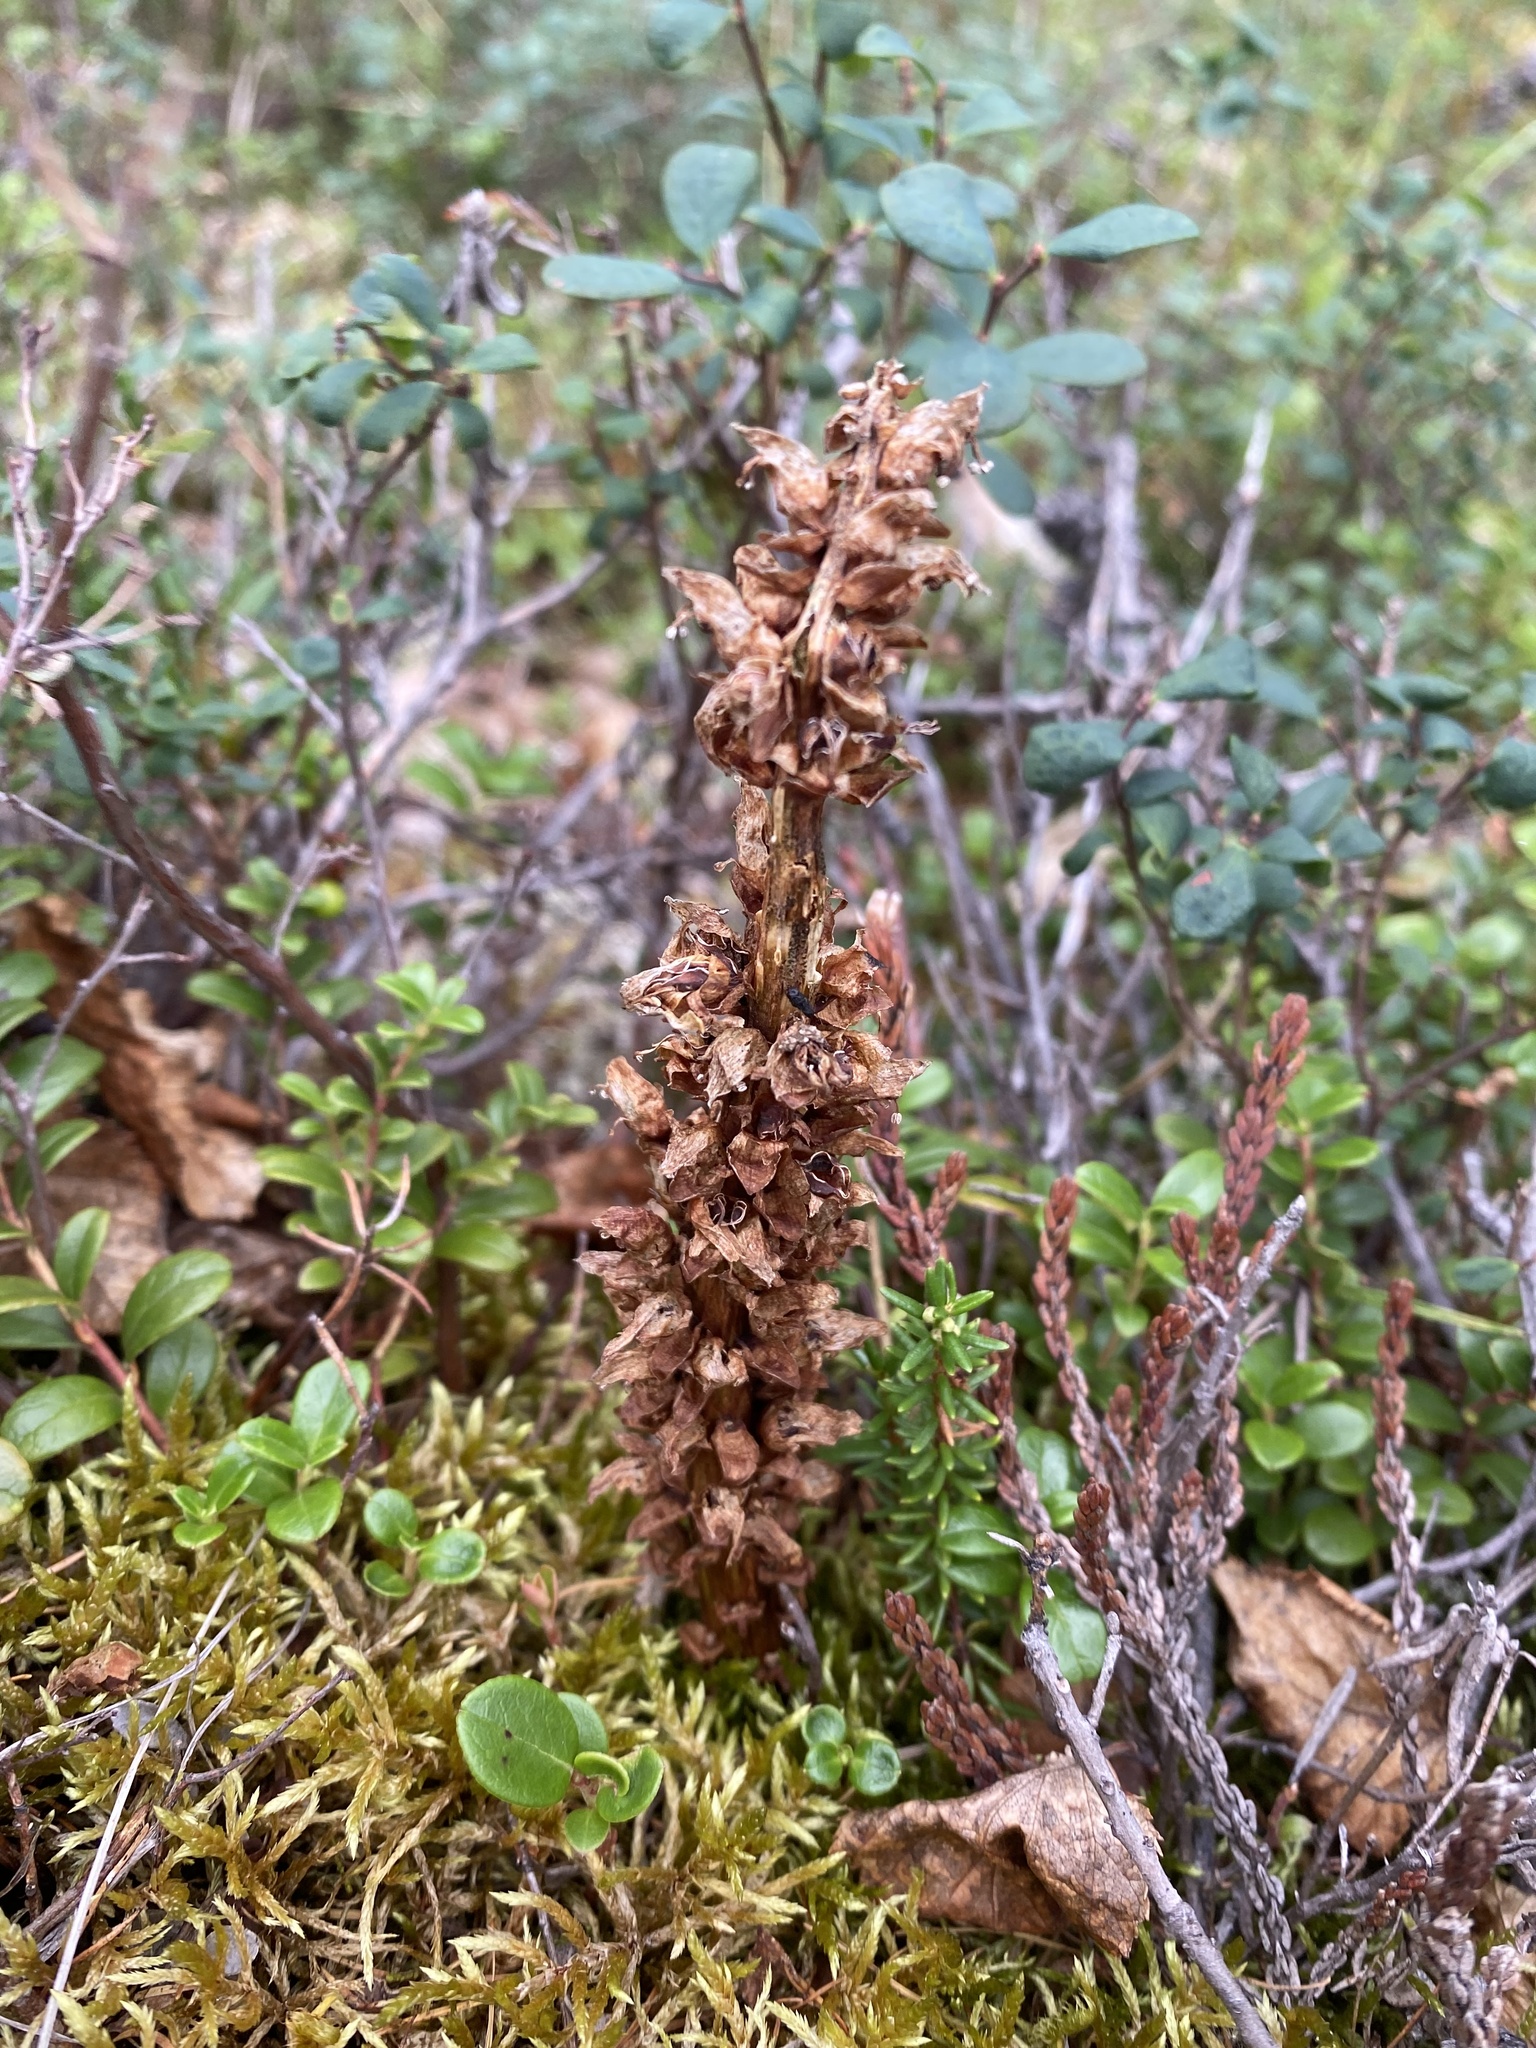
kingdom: Plantae
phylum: Tracheophyta
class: Magnoliopsida
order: Lamiales
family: Orobanchaceae
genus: Boschniakia
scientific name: Boschniakia rossica
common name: Poque
